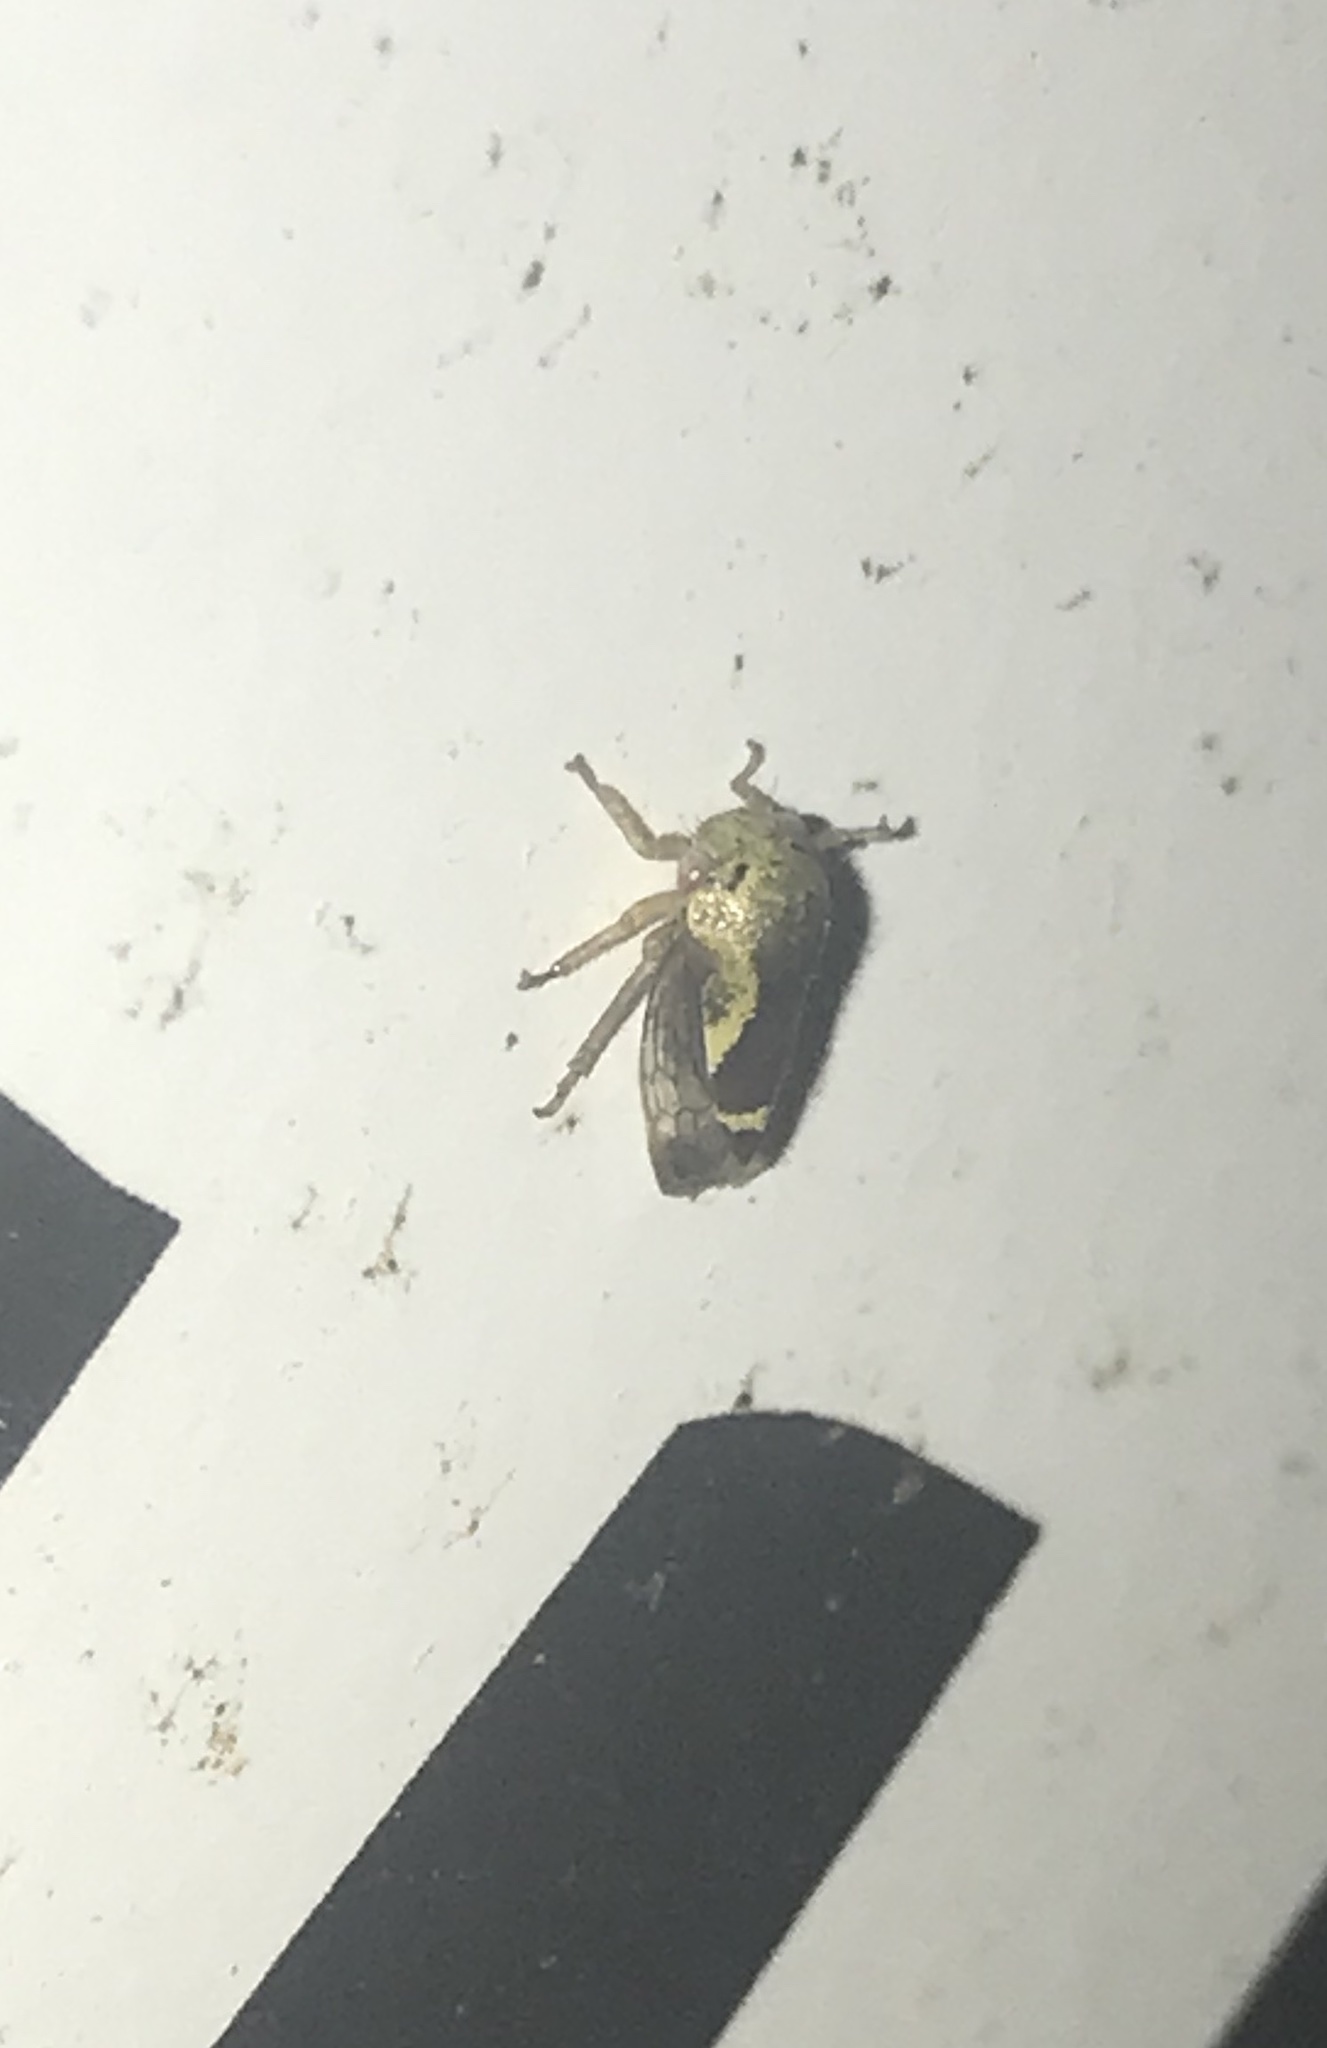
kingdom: Animalia
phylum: Arthropoda
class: Insecta
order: Hemiptera
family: Membracidae
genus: Ophiderma
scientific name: Ophiderma evelyna
